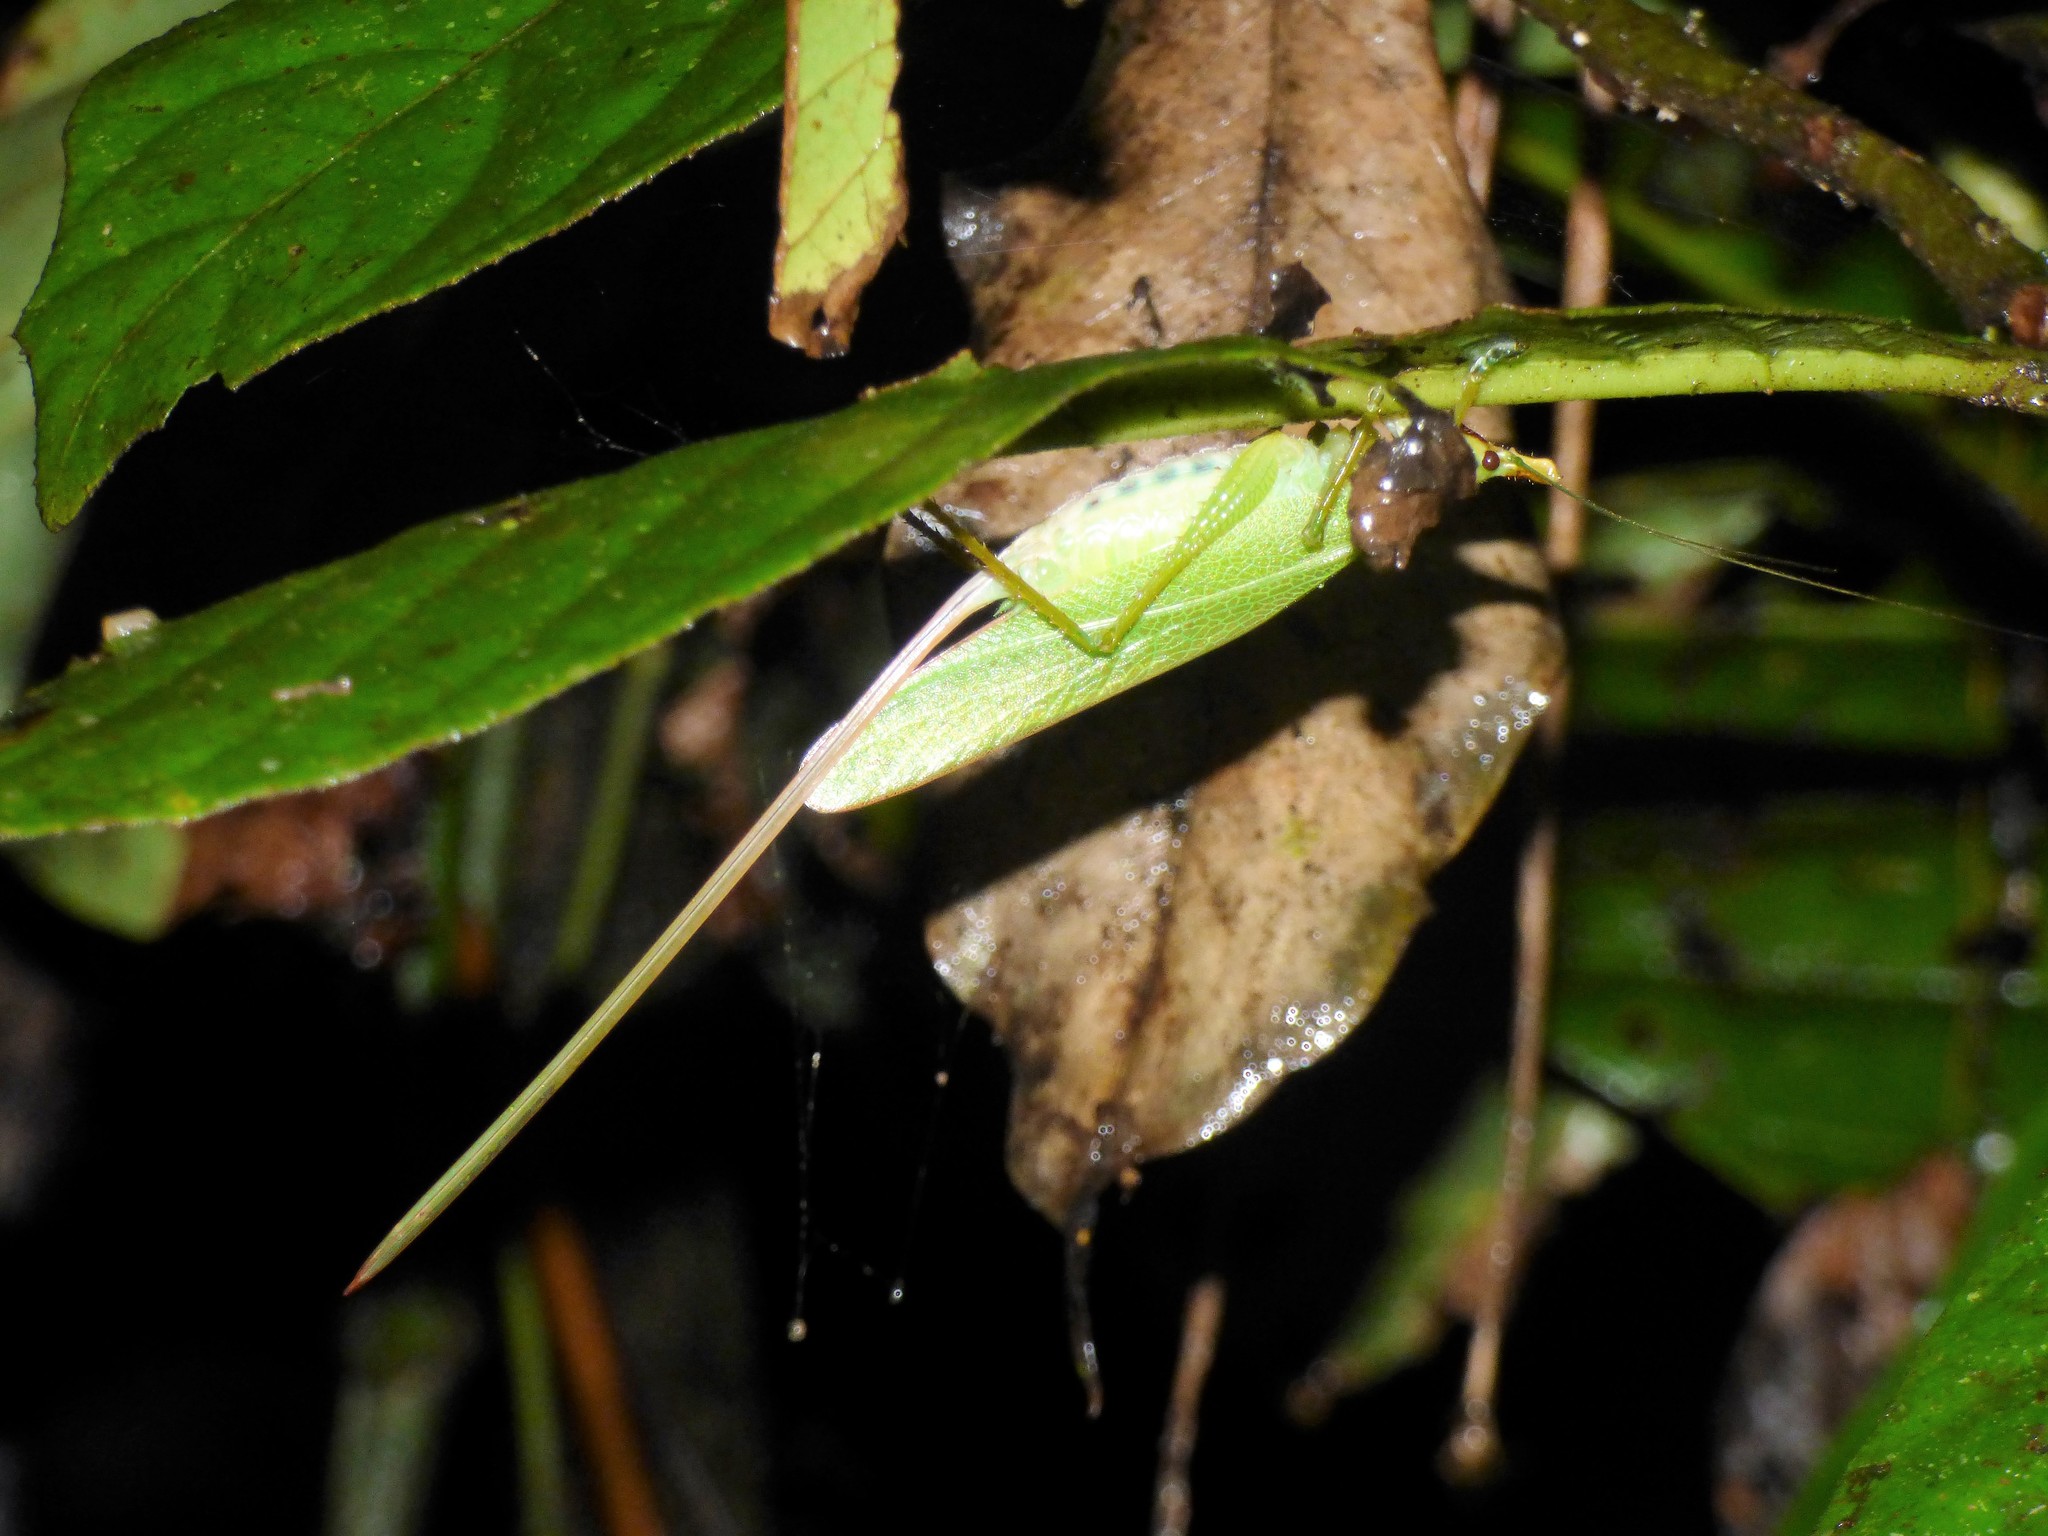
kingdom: Animalia
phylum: Arthropoda
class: Insecta
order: Orthoptera
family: Tettigoniidae
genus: Copiphora
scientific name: Copiphora hastata
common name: Brown-faced spearbearer
